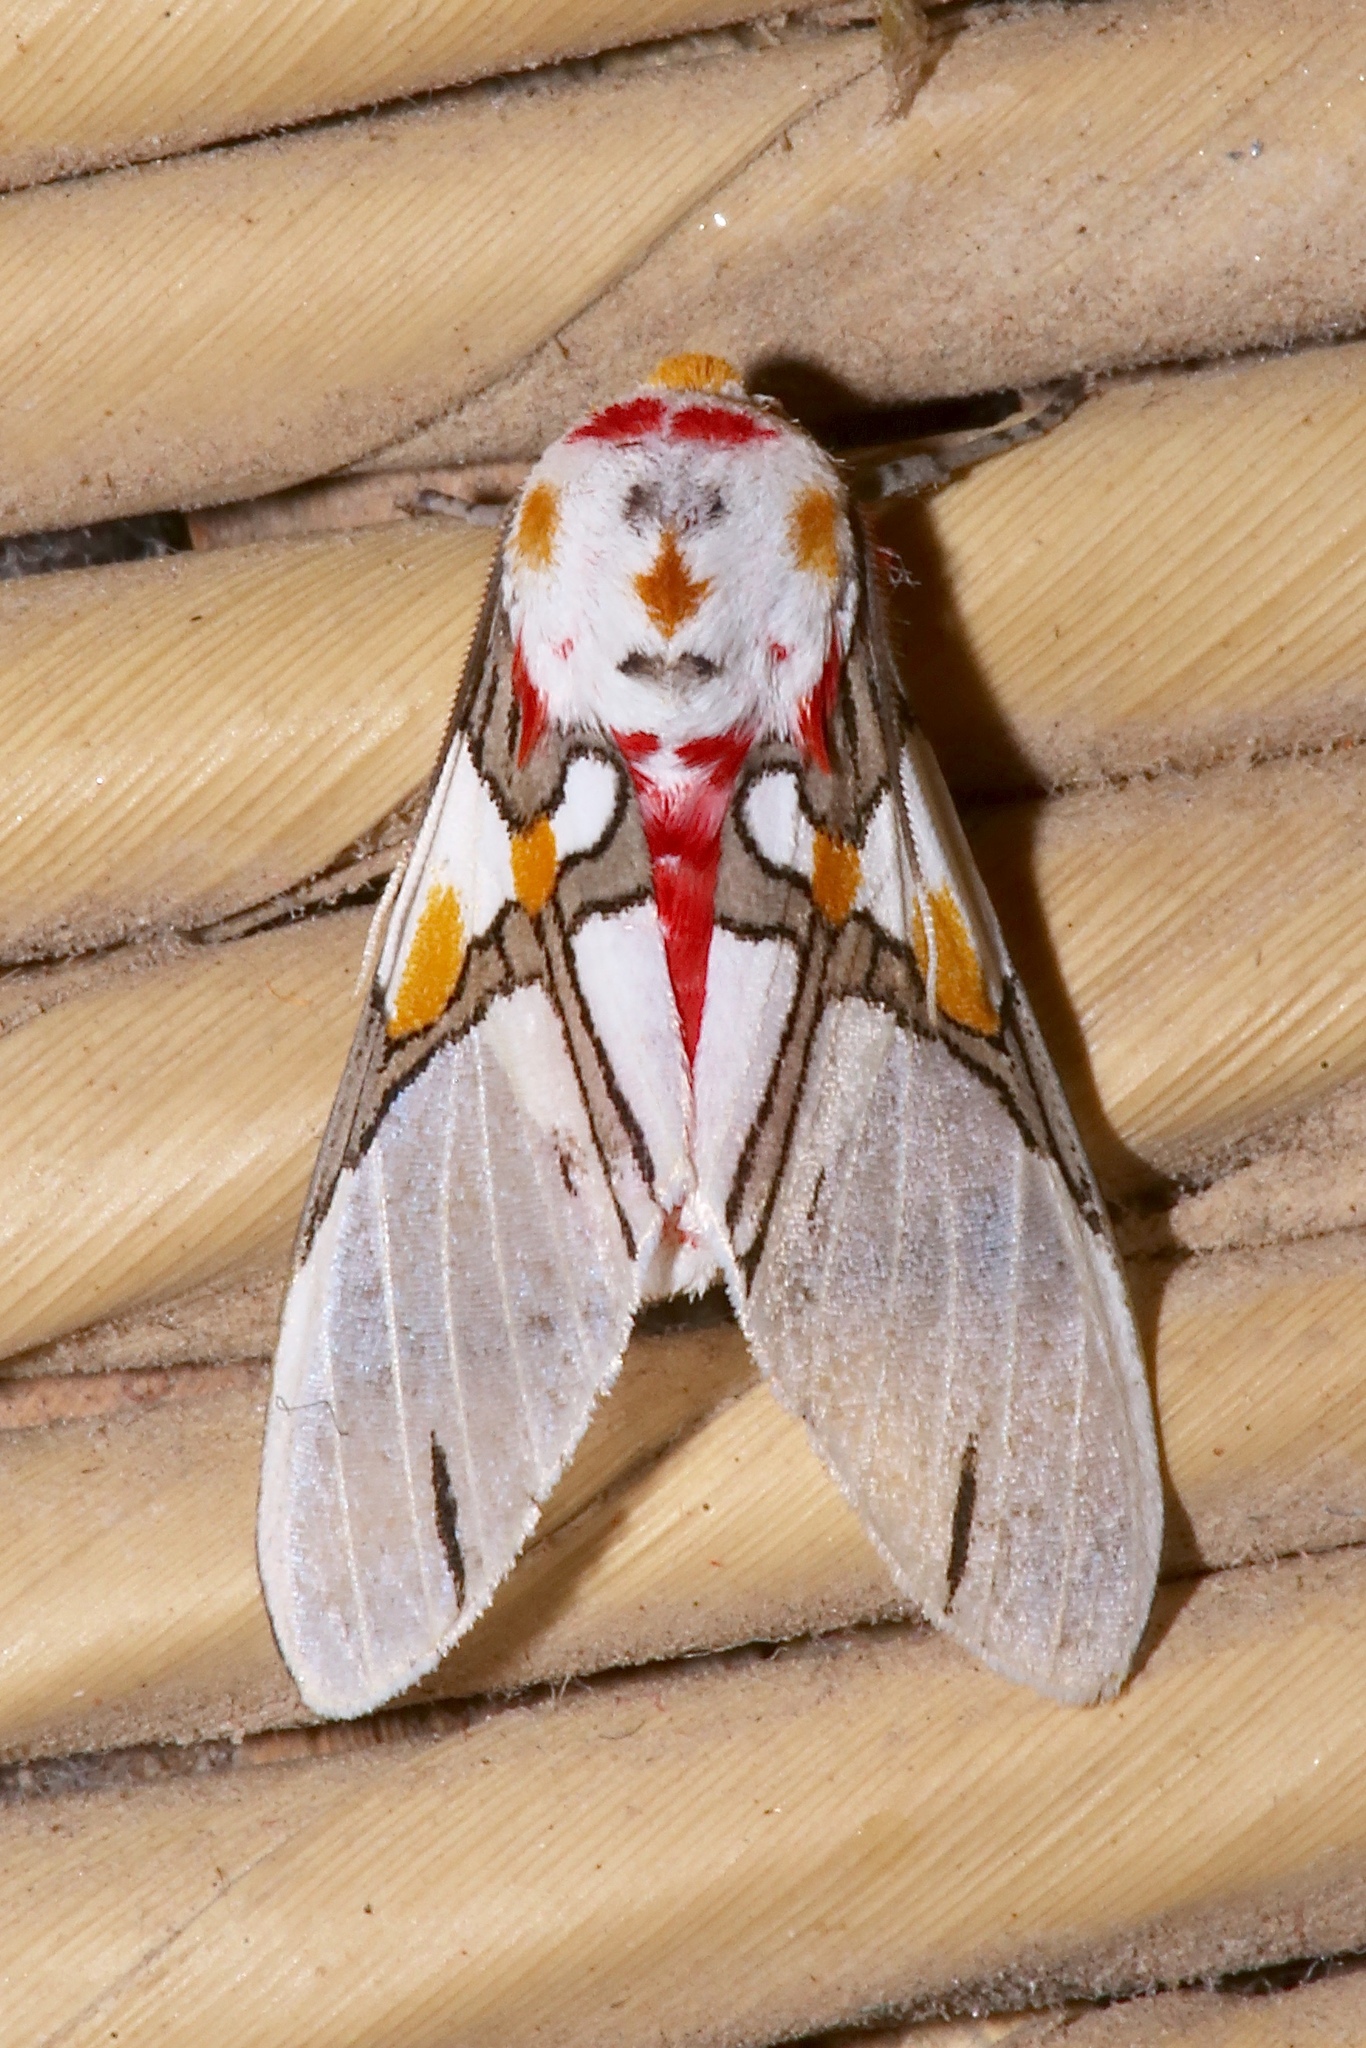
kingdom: Animalia
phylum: Arthropoda
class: Insecta
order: Lepidoptera
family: Erebidae
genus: Idalus
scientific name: Idalus crinis
